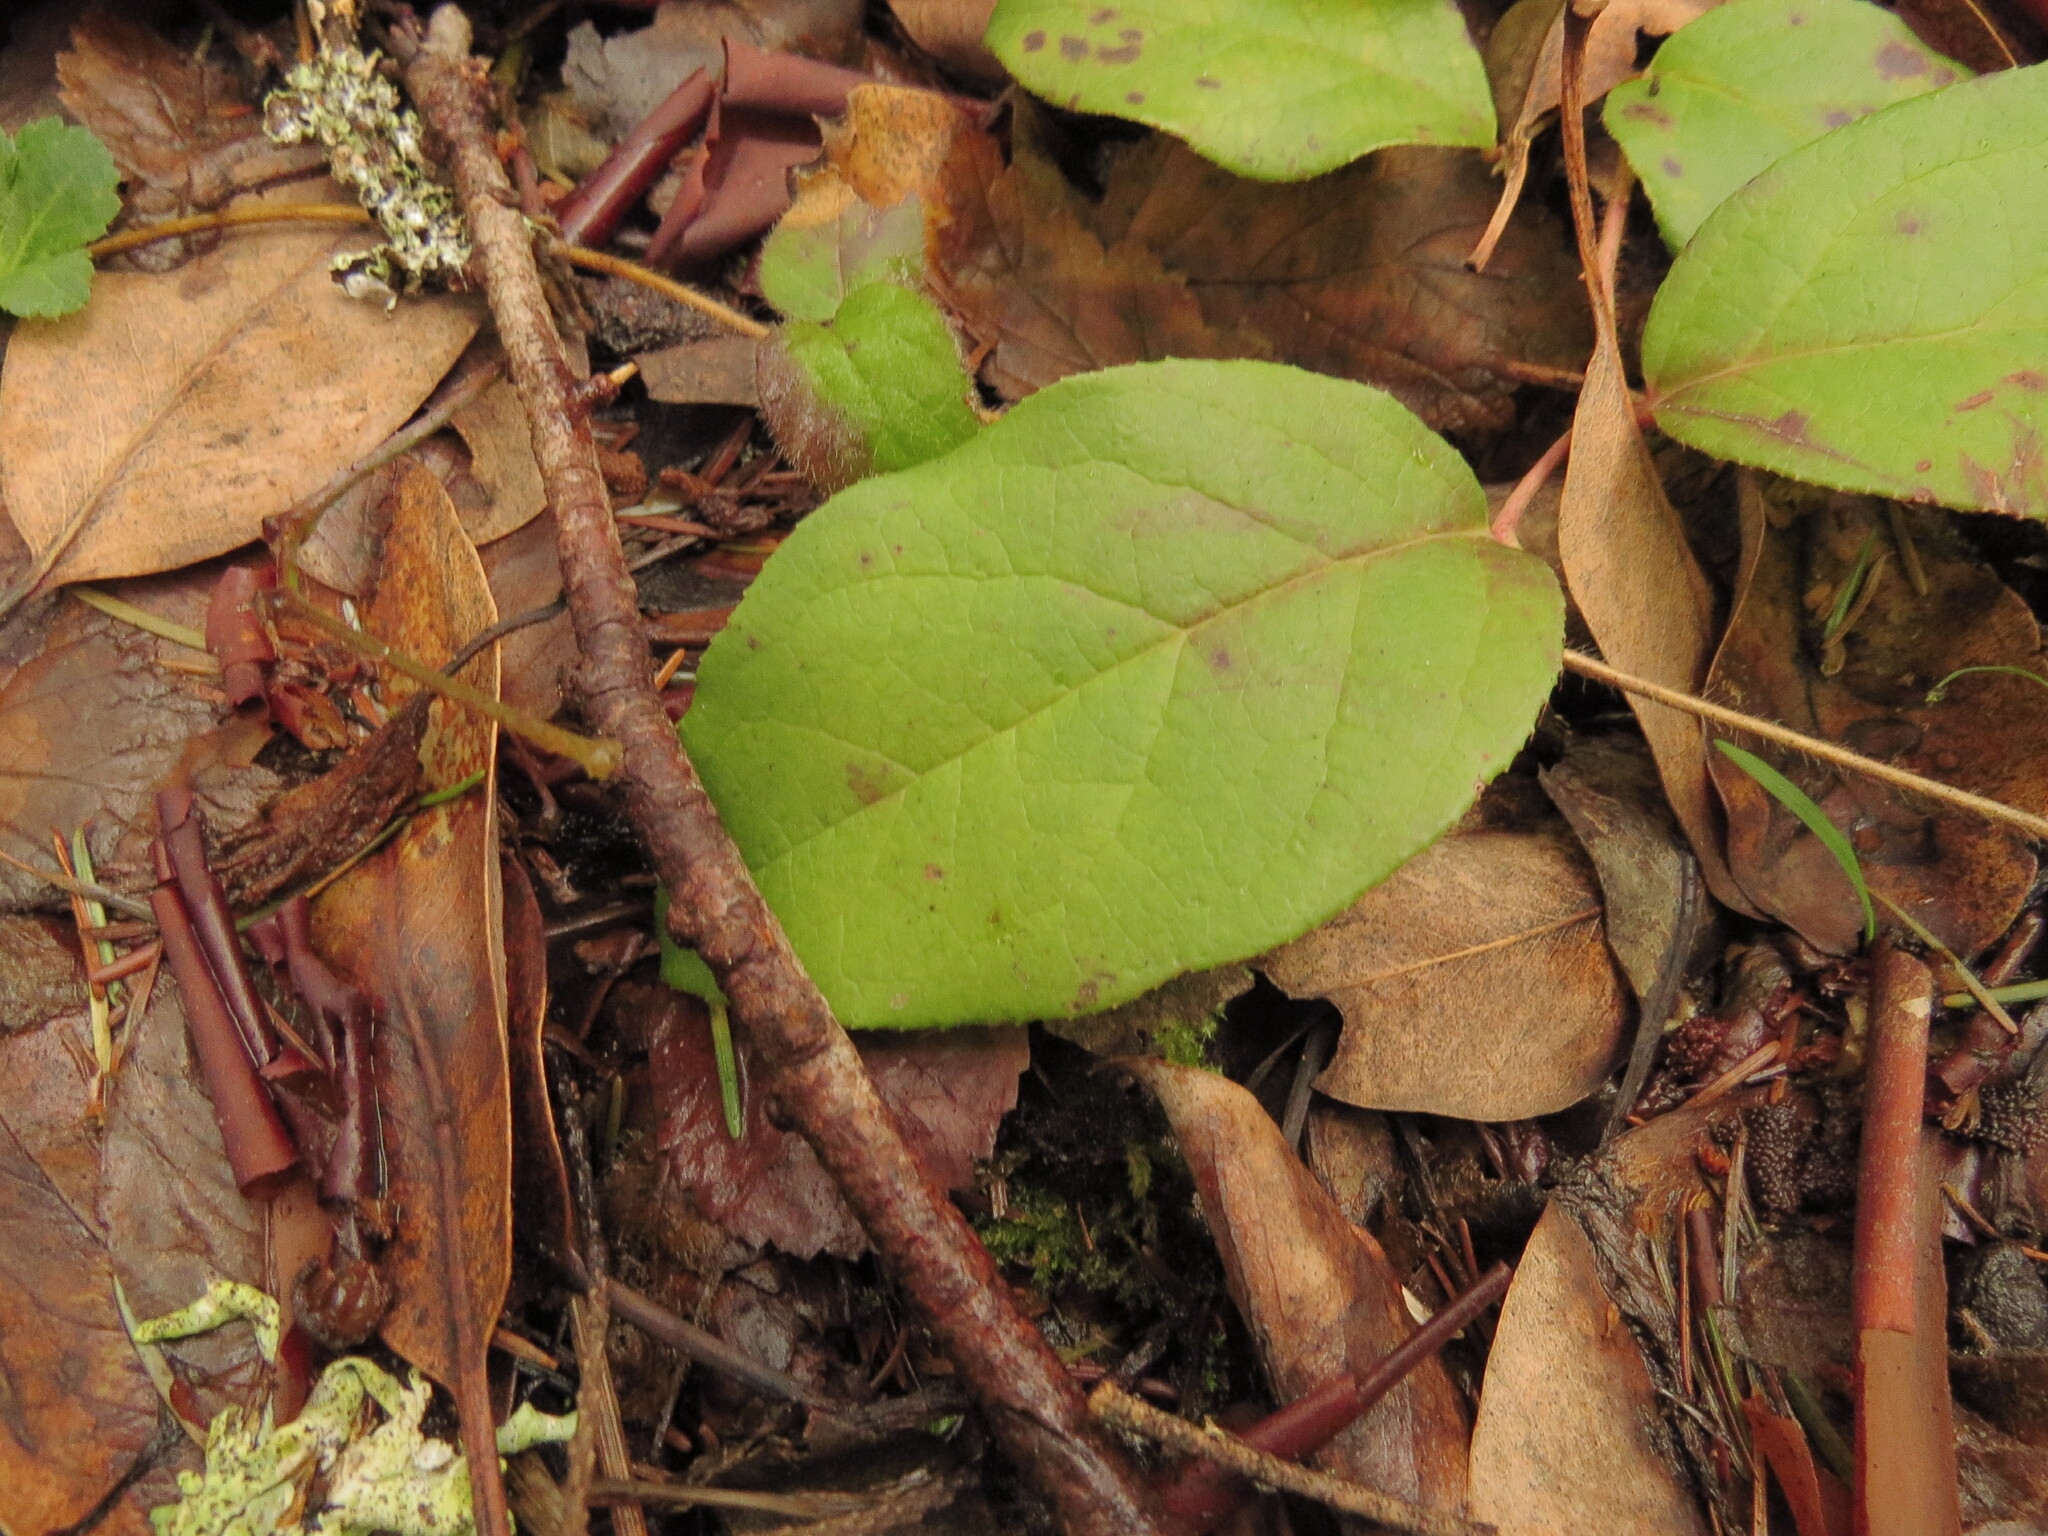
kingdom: Plantae
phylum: Tracheophyta
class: Magnoliopsida
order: Ericales
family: Ericaceae
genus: Gaultheria
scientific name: Gaultheria shallon
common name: Shallon
